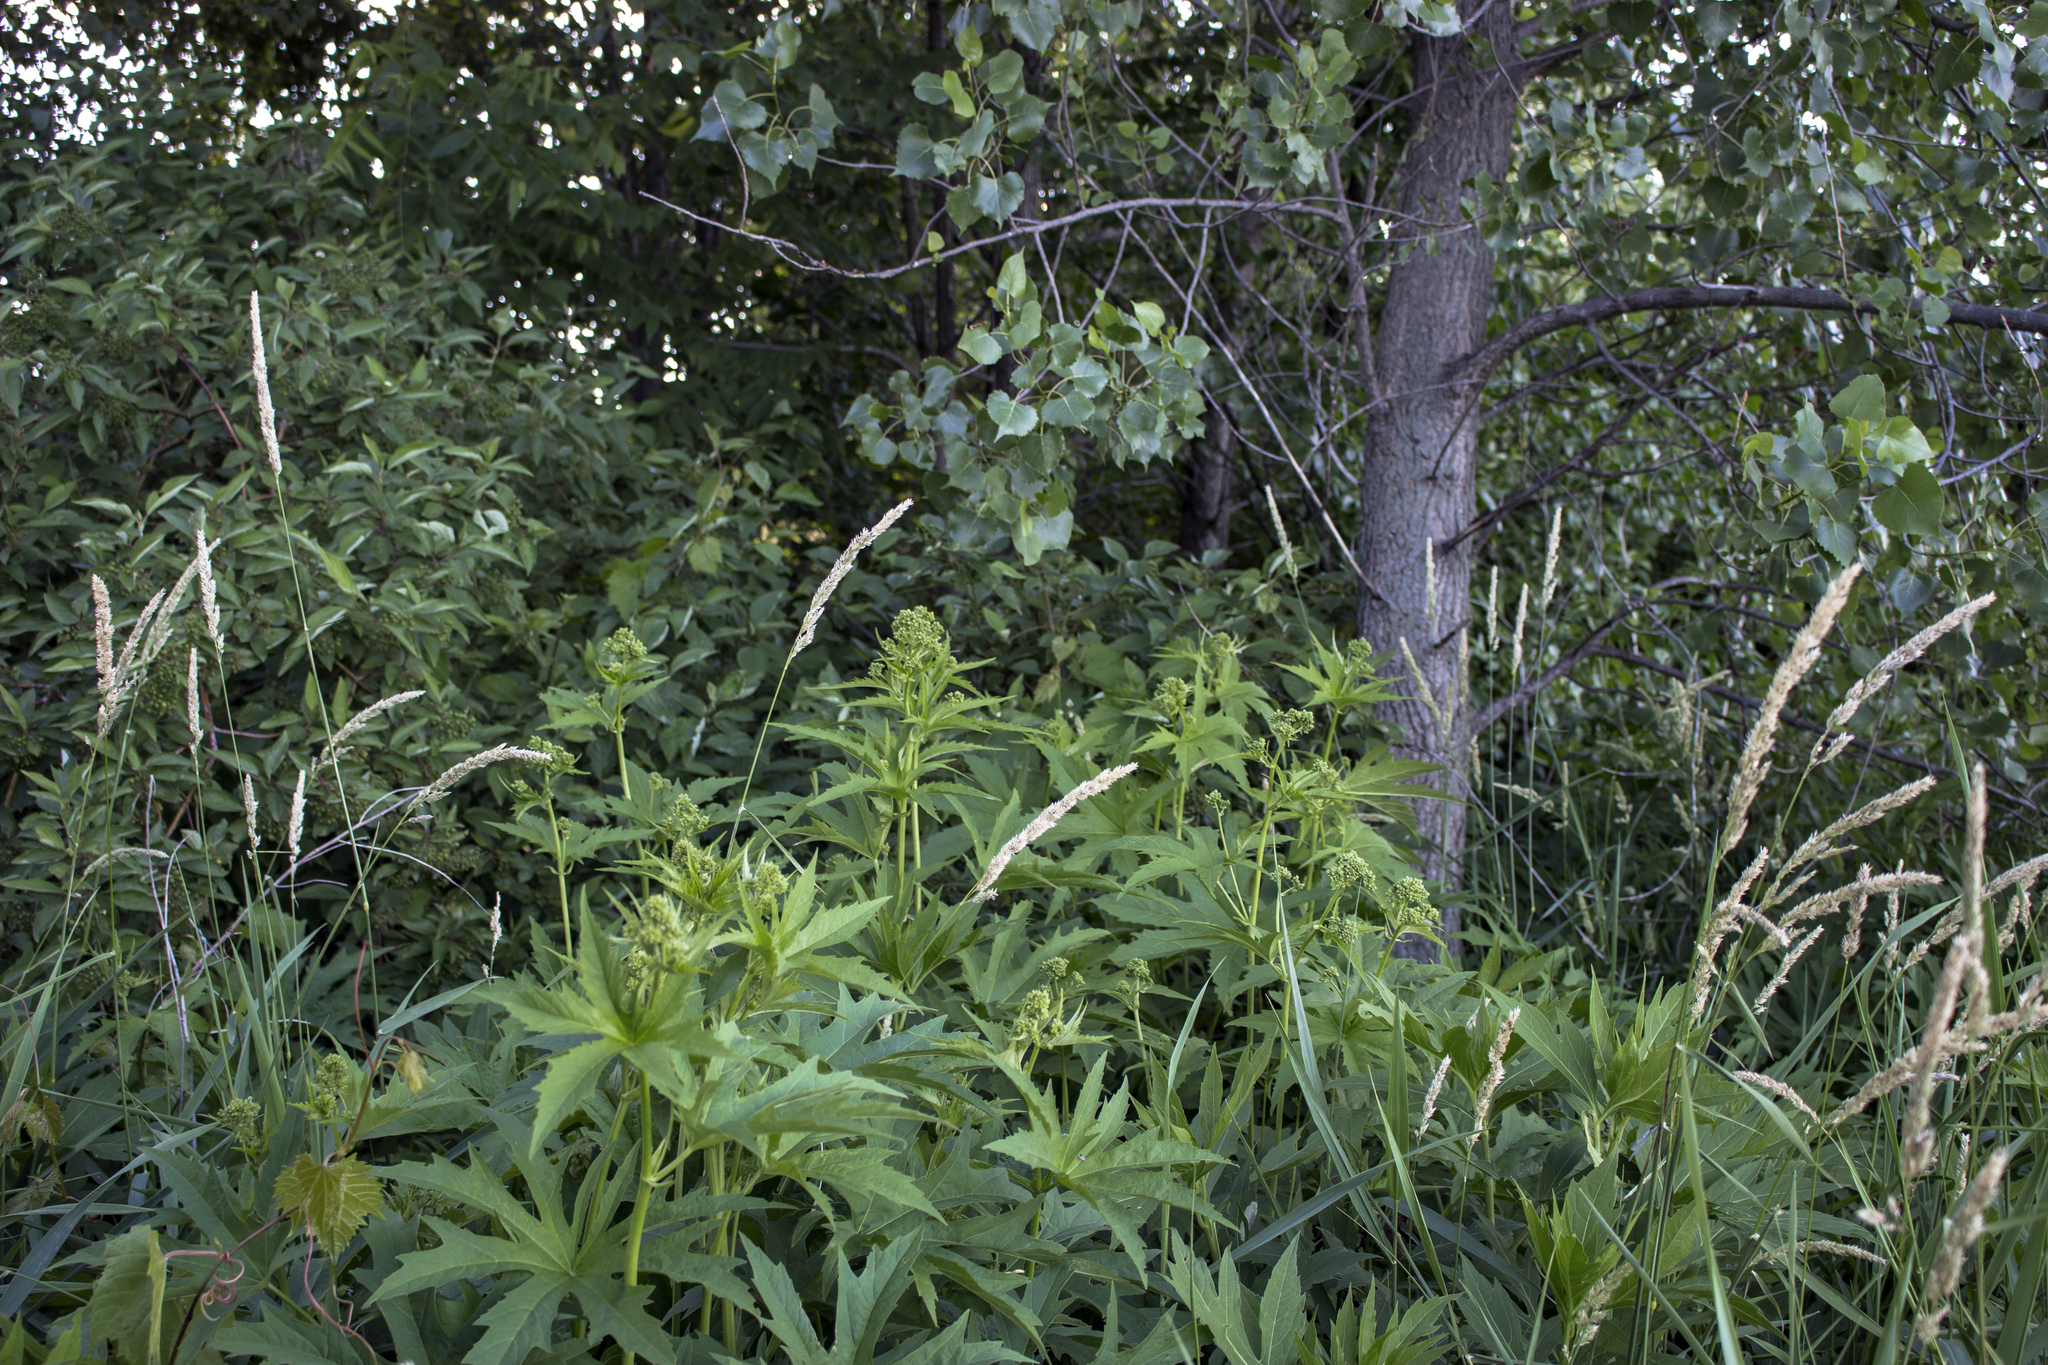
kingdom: Plantae
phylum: Tracheophyta
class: Magnoliopsida
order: Malvales
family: Malvaceae
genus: Napaea
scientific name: Napaea dioica
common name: Glade-mallow
